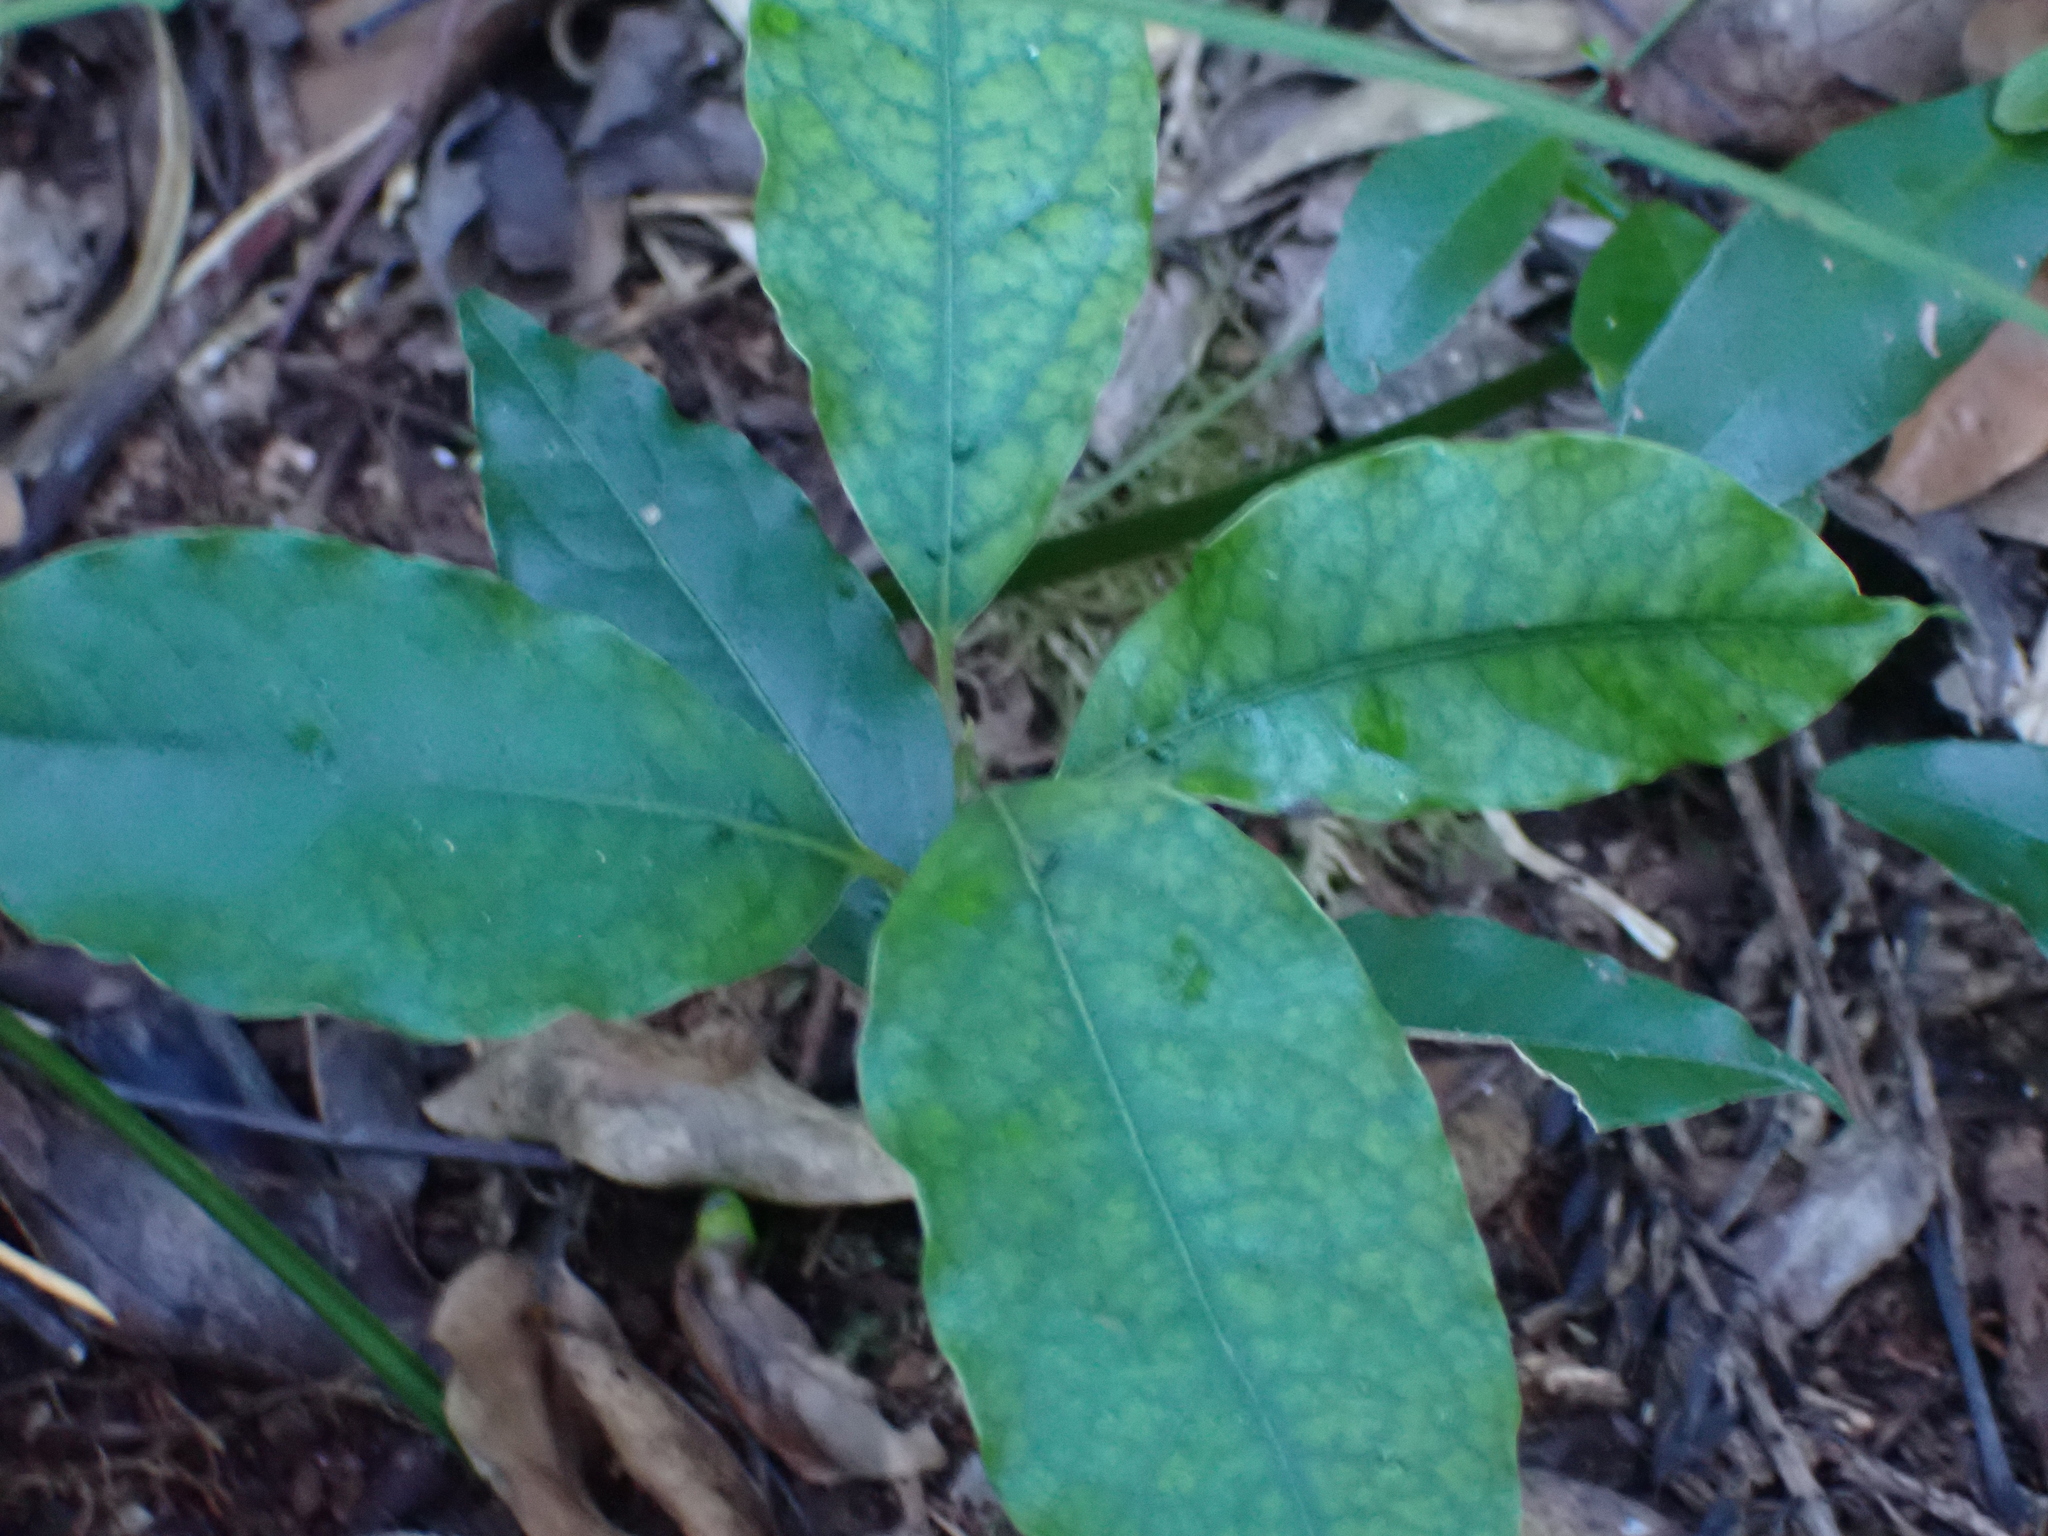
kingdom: Plantae
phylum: Tracheophyta
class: Magnoliopsida
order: Laurales
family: Lauraceae
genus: Ocotea
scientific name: Ocotea bullata
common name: Black stinkwood
